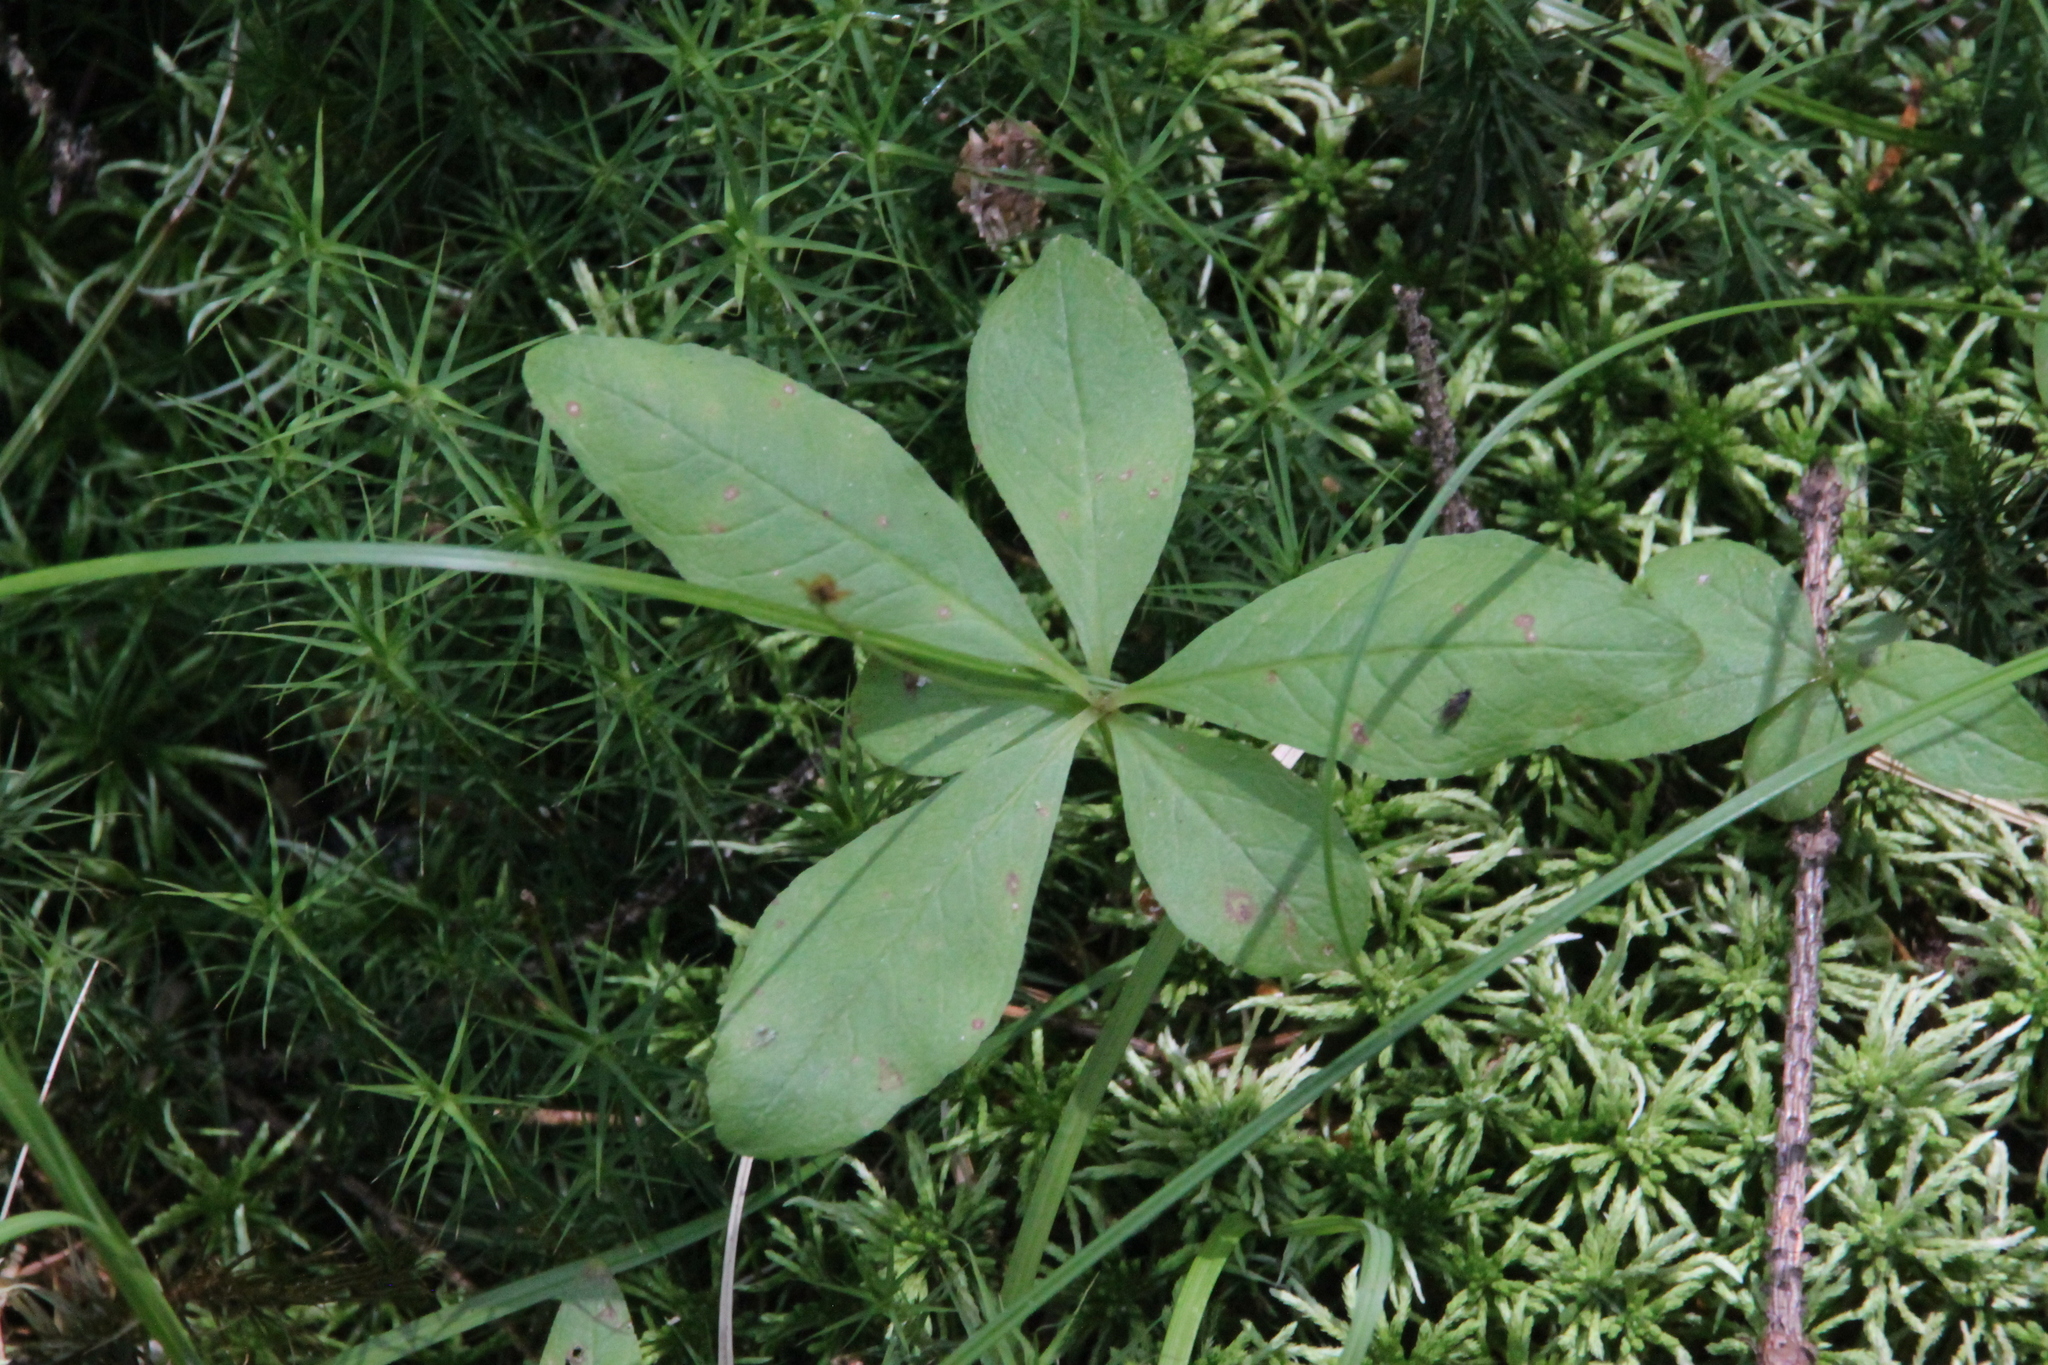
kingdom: Plantae
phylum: Tracheophyta
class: Magnoliopsida
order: Ericales
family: Primulaceae
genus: Lysimachia
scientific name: Lysimachia europaea
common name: Arctic starflower
